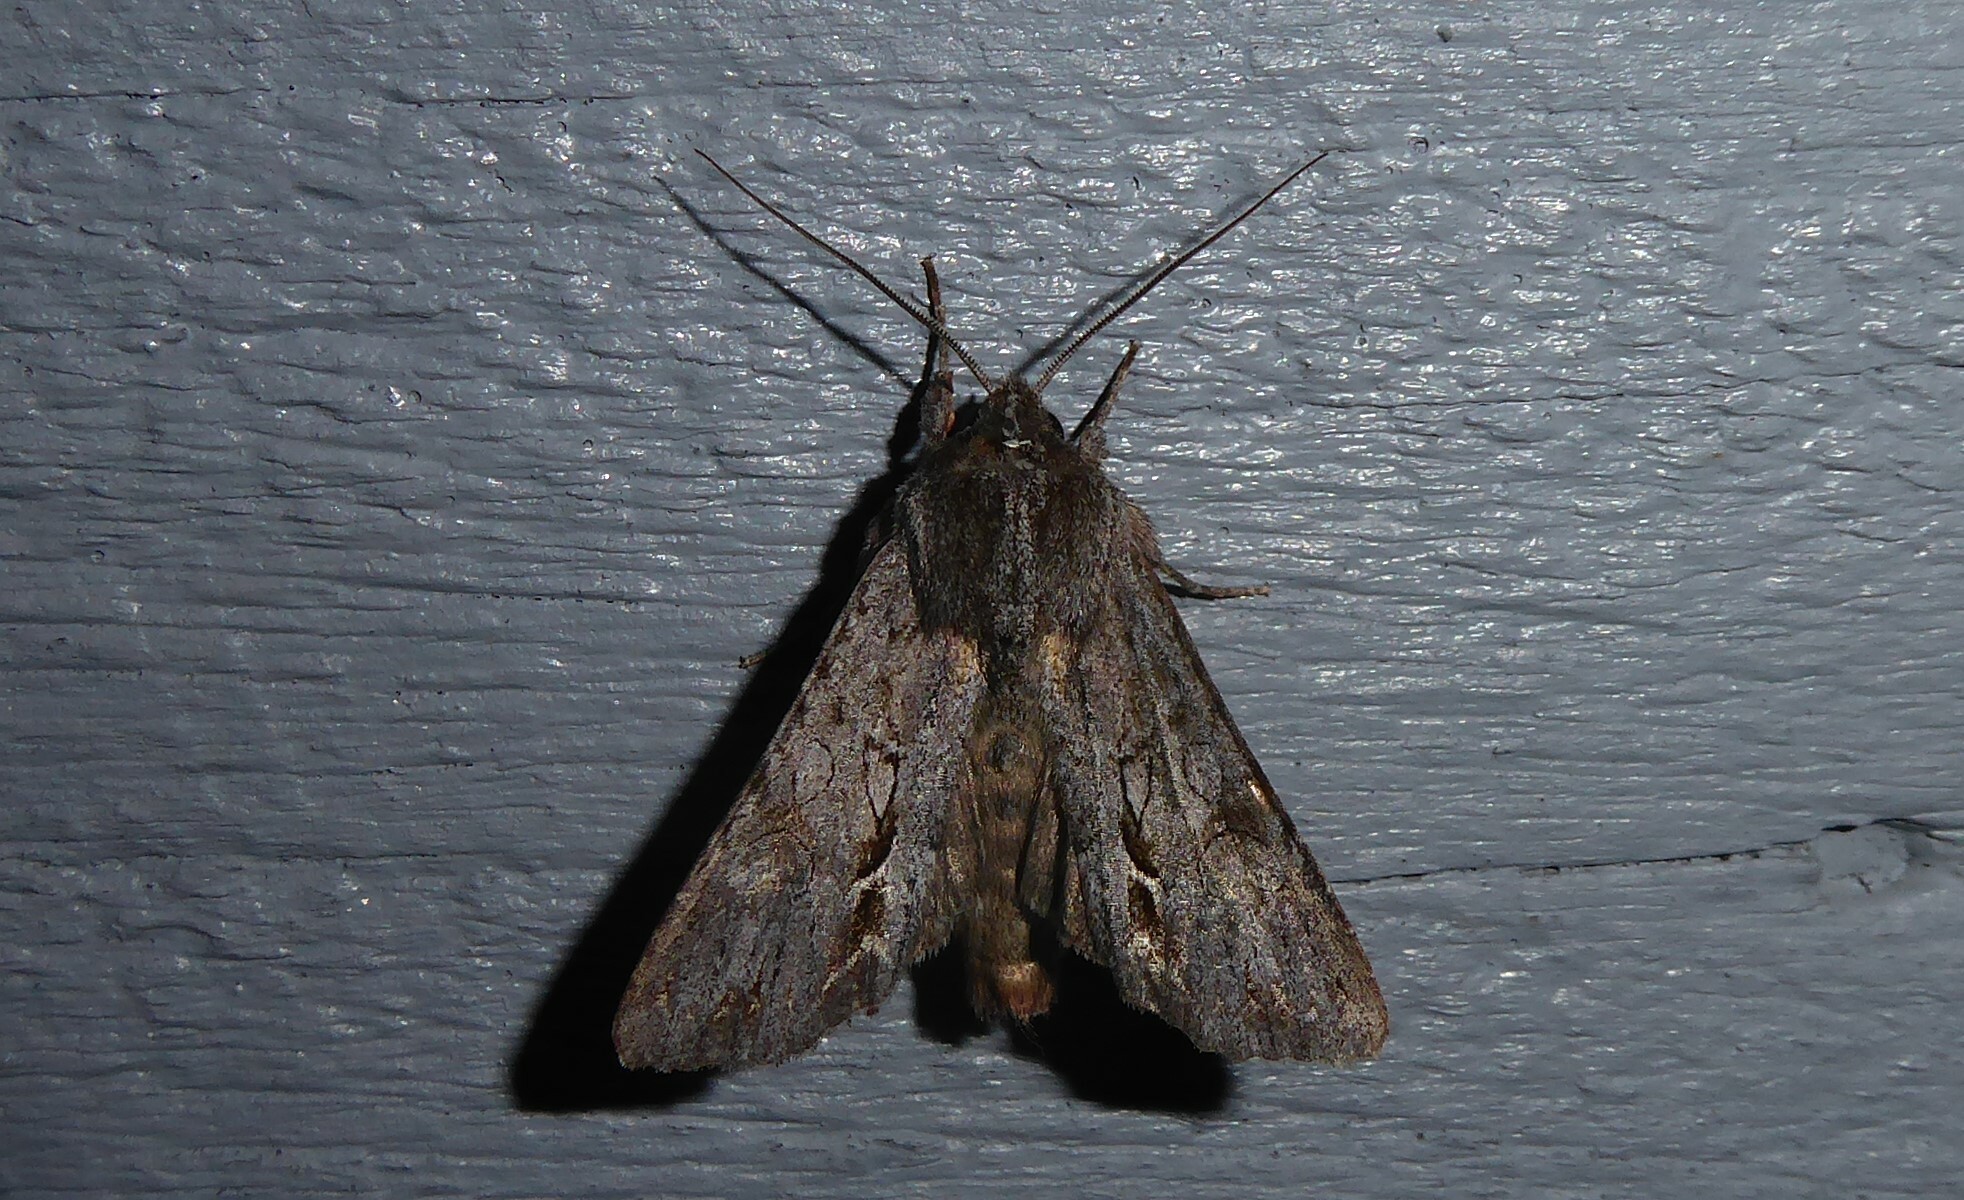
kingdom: Animalia
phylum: Arthropoda
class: Insecta
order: Lepidoptera
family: Noctuidae
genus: Ichneutica
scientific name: Ichneutica
